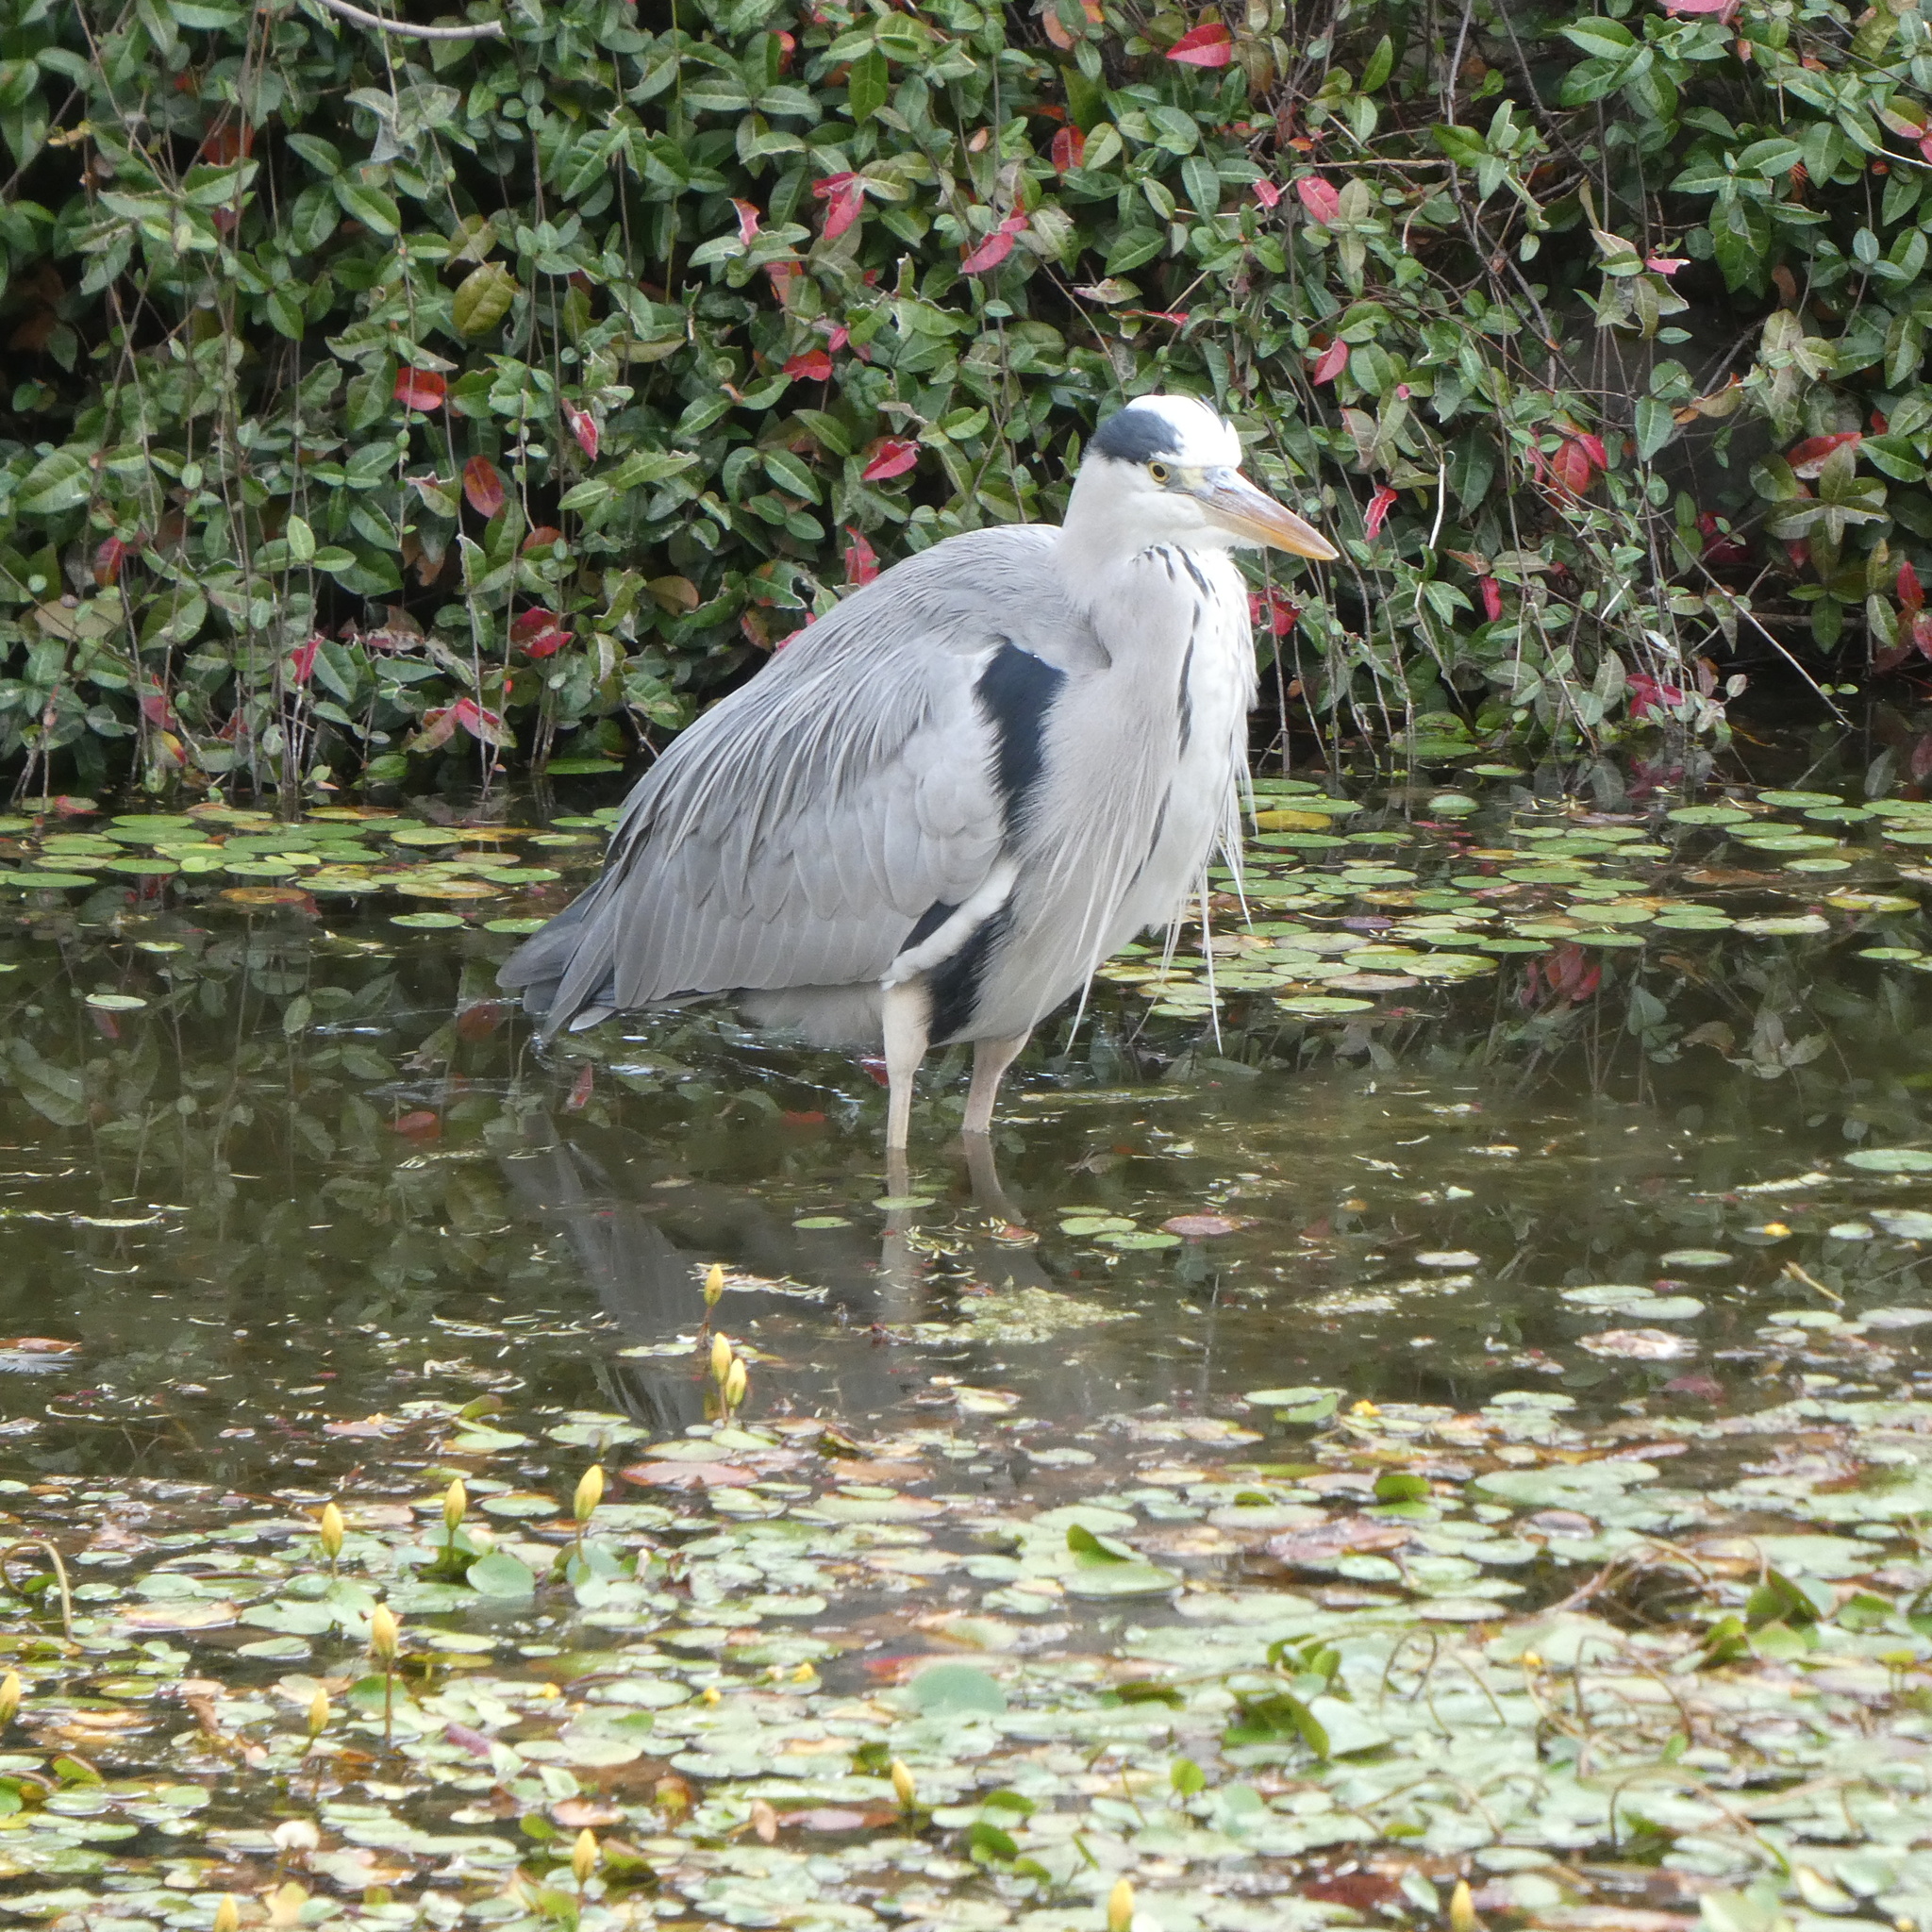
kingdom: Animalia
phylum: Chordata
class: Aves
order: Pelecaniformes
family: Ardeidae
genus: Ardea
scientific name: Ardea cinerea
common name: Grey heron
